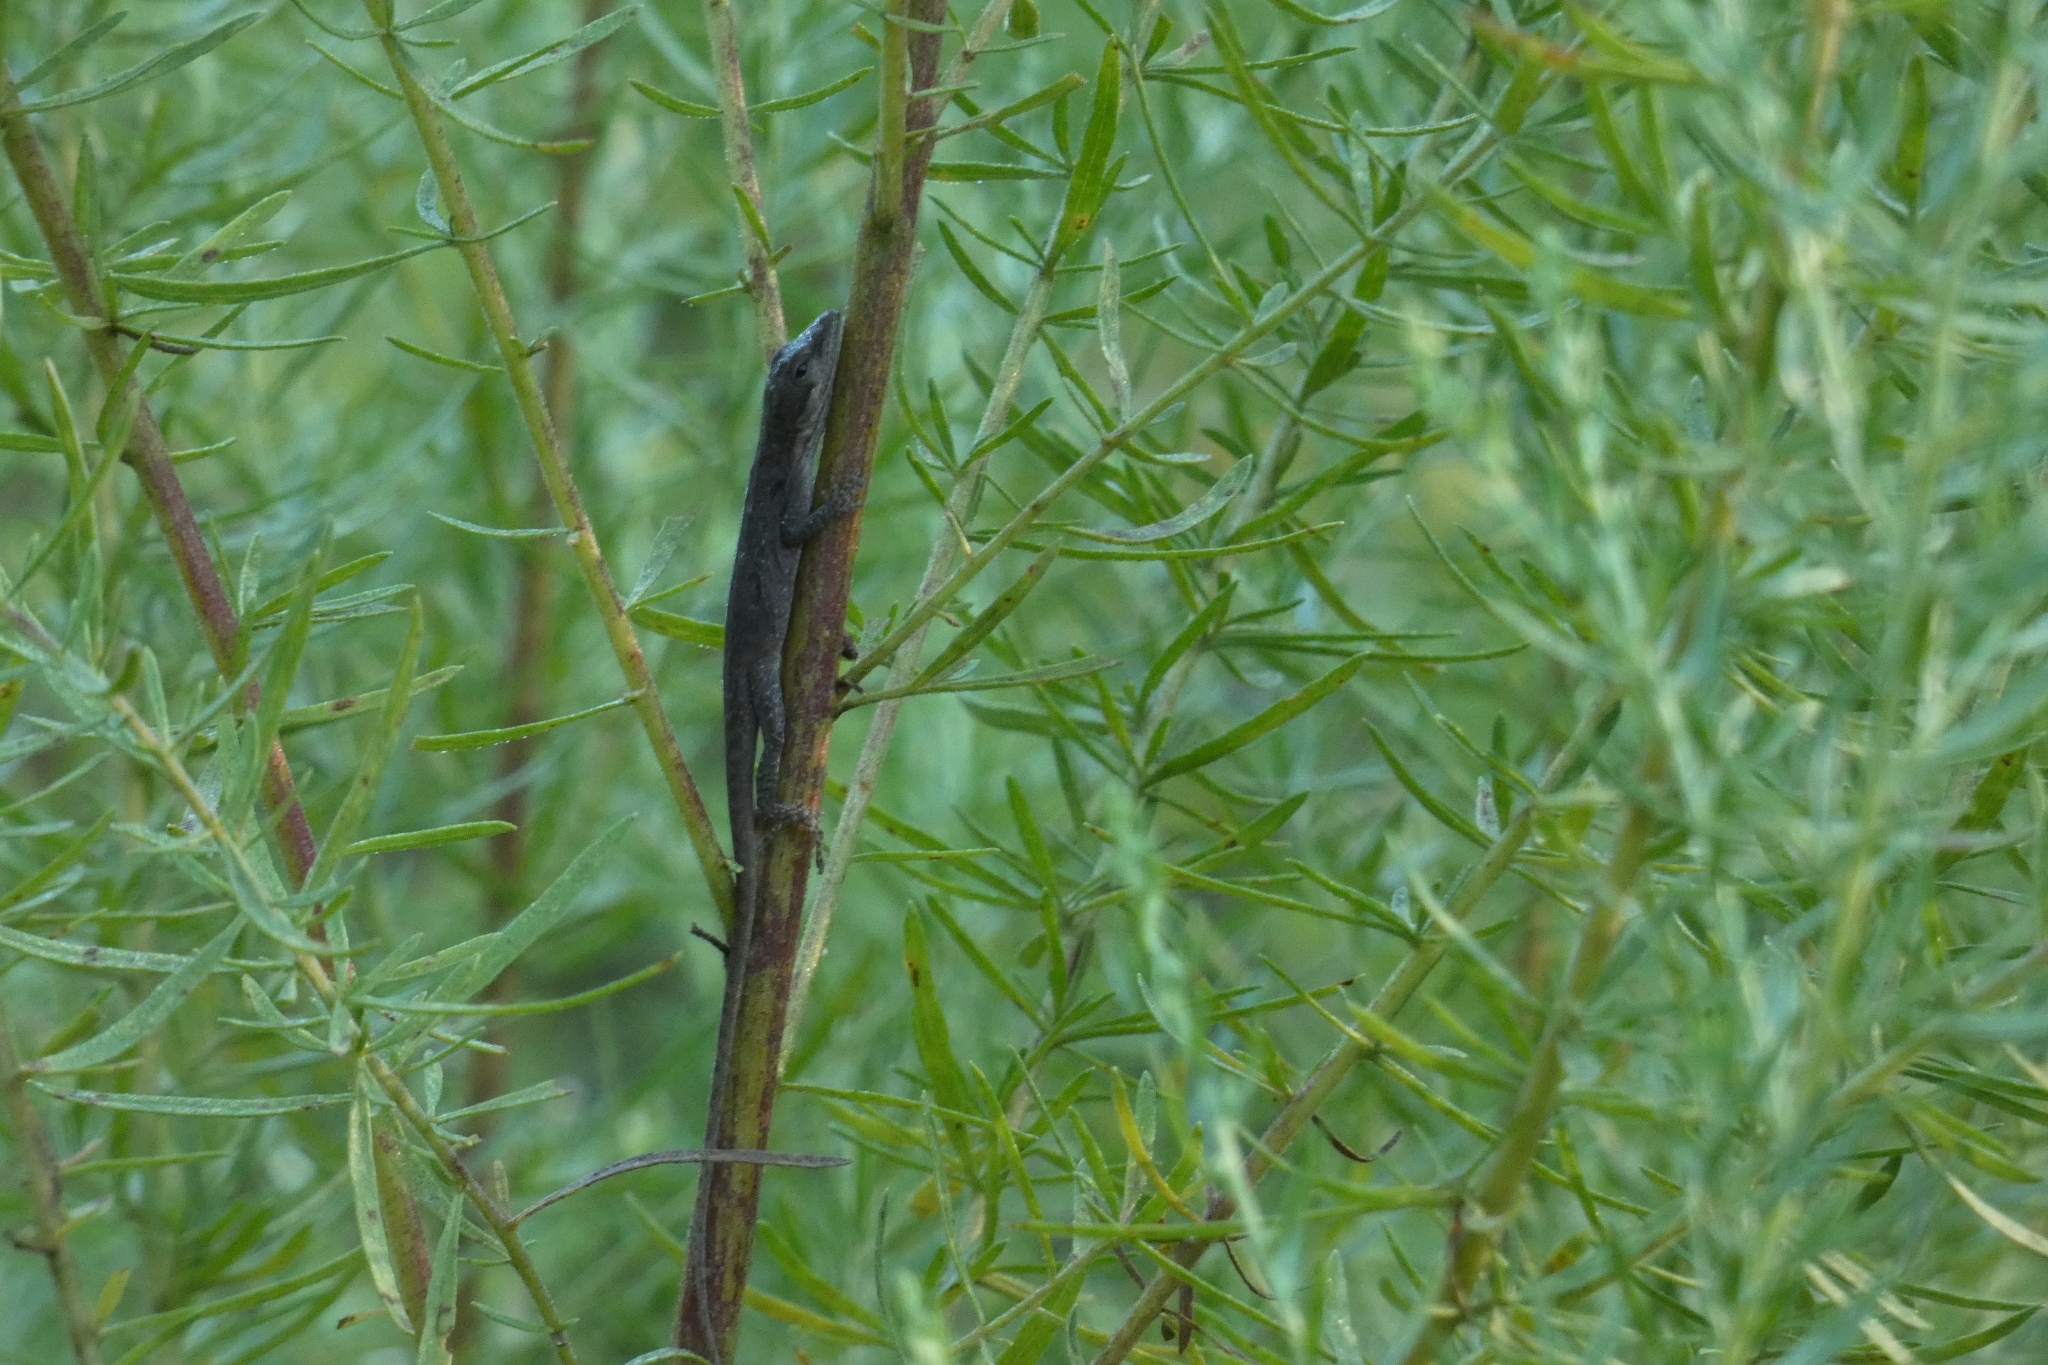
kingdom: Animalia
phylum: Chordata
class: Squamata
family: Dactyloidae
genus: Anolis
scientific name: Anolis carolinensis
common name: Green anole
